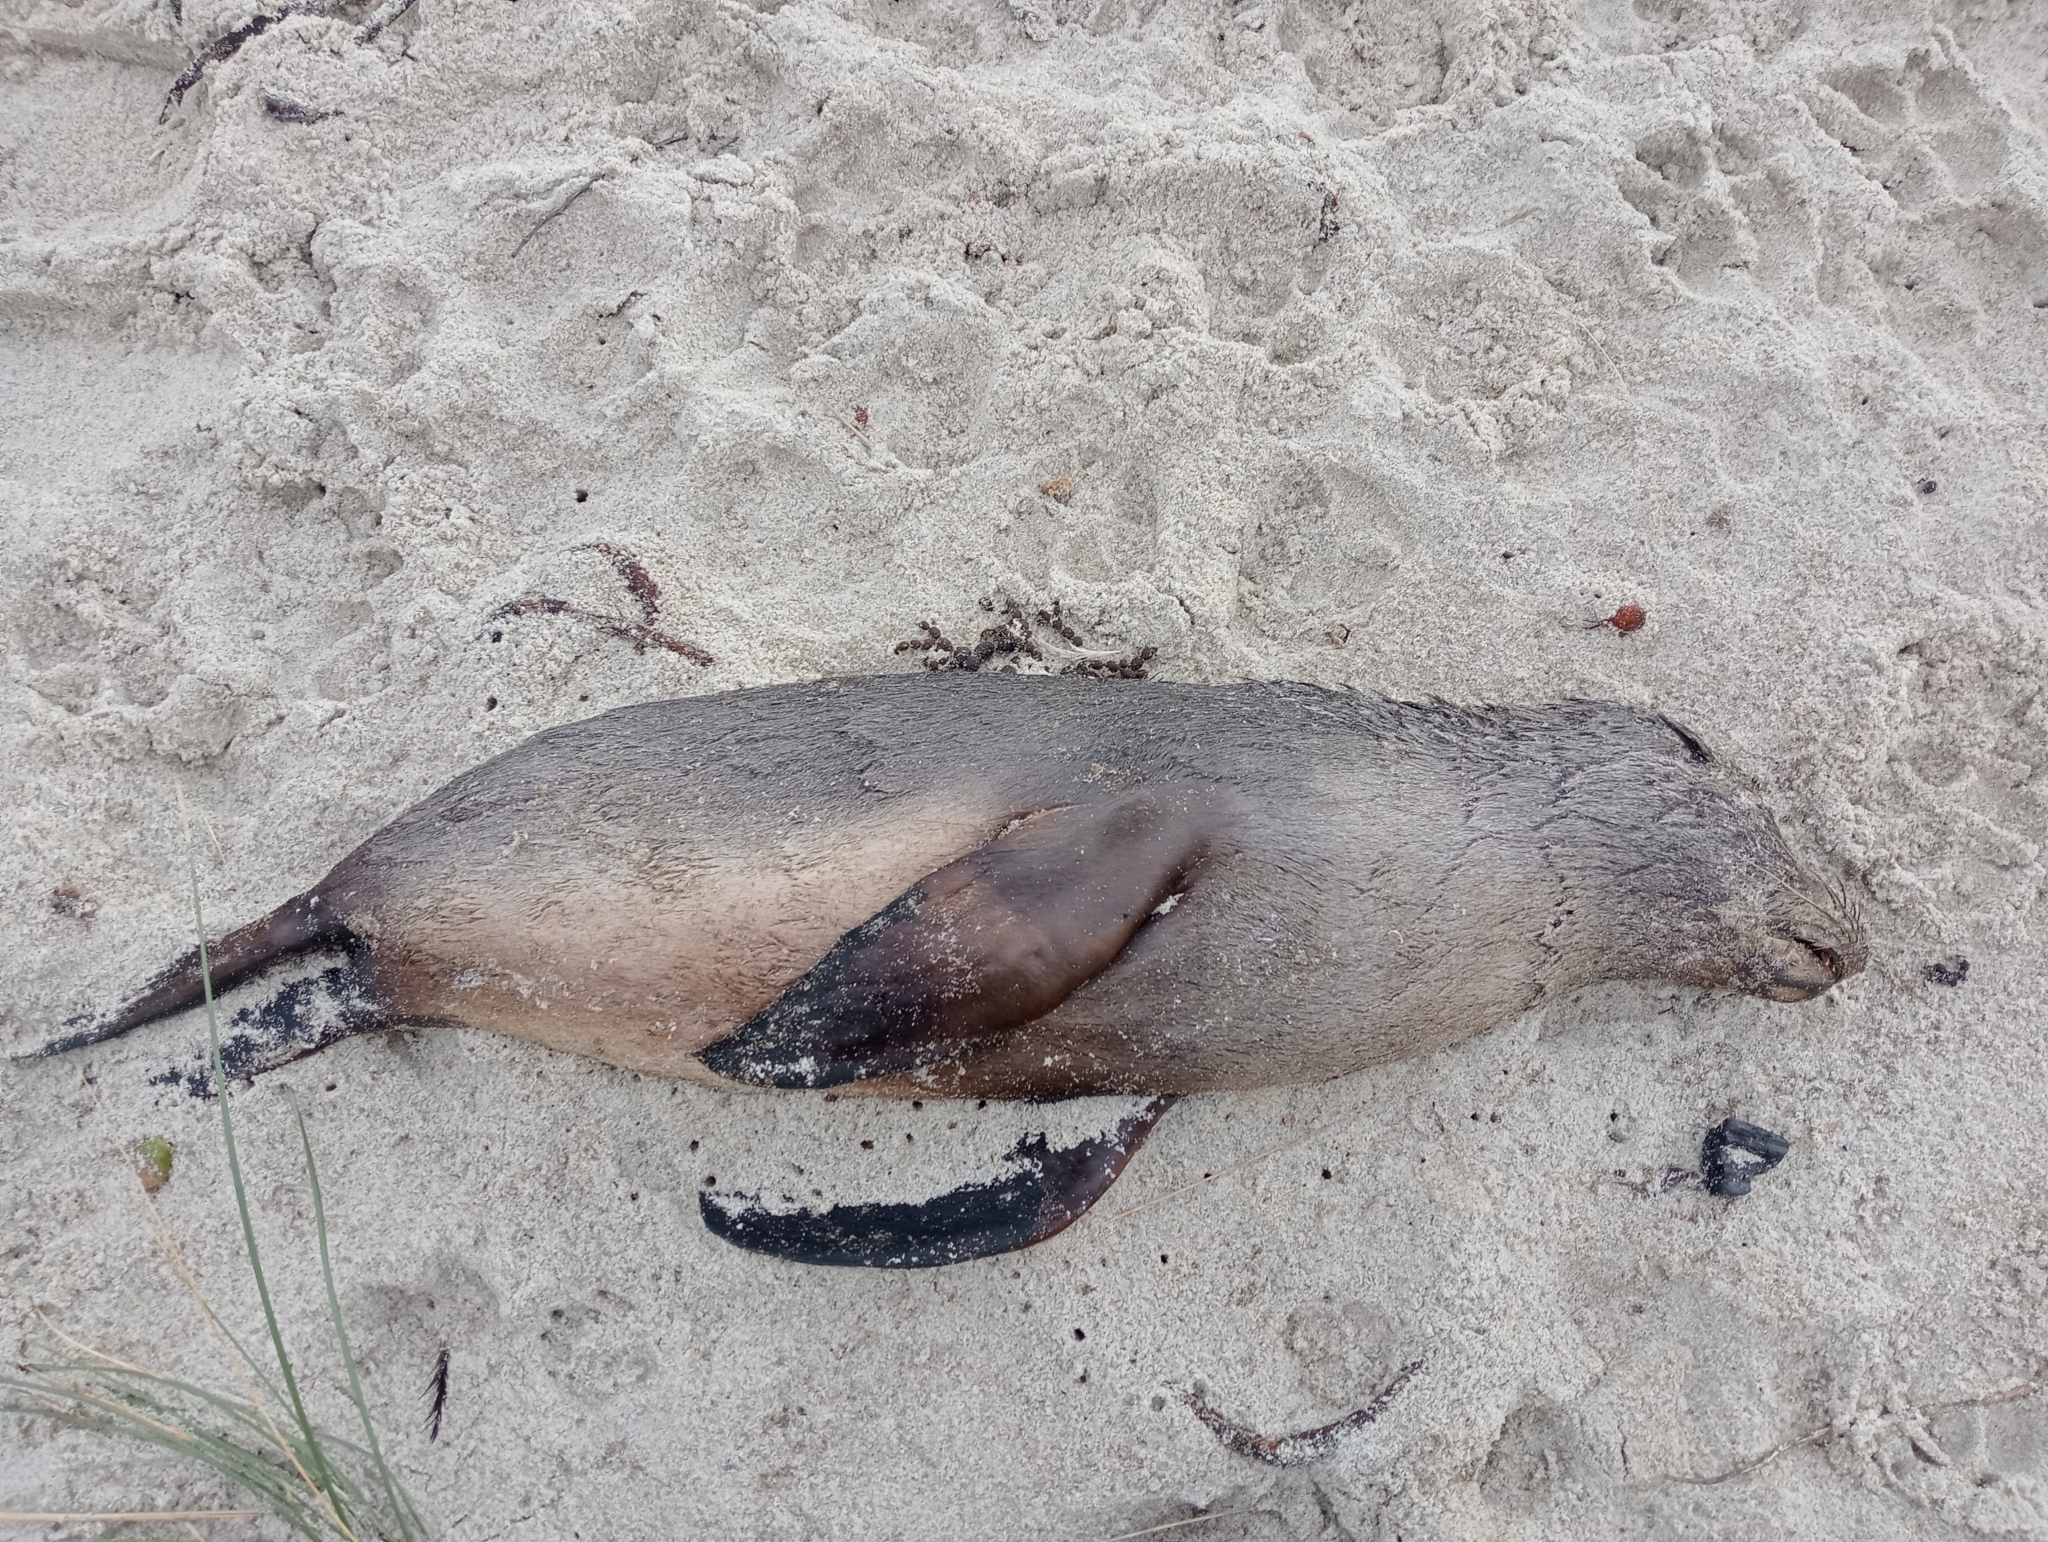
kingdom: Animalia
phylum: Chordata
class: Mammalia
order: Carnivora
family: Otariidae
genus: Arctocephalus
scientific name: Arctocephalus forsteri
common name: New zealand fur seal
